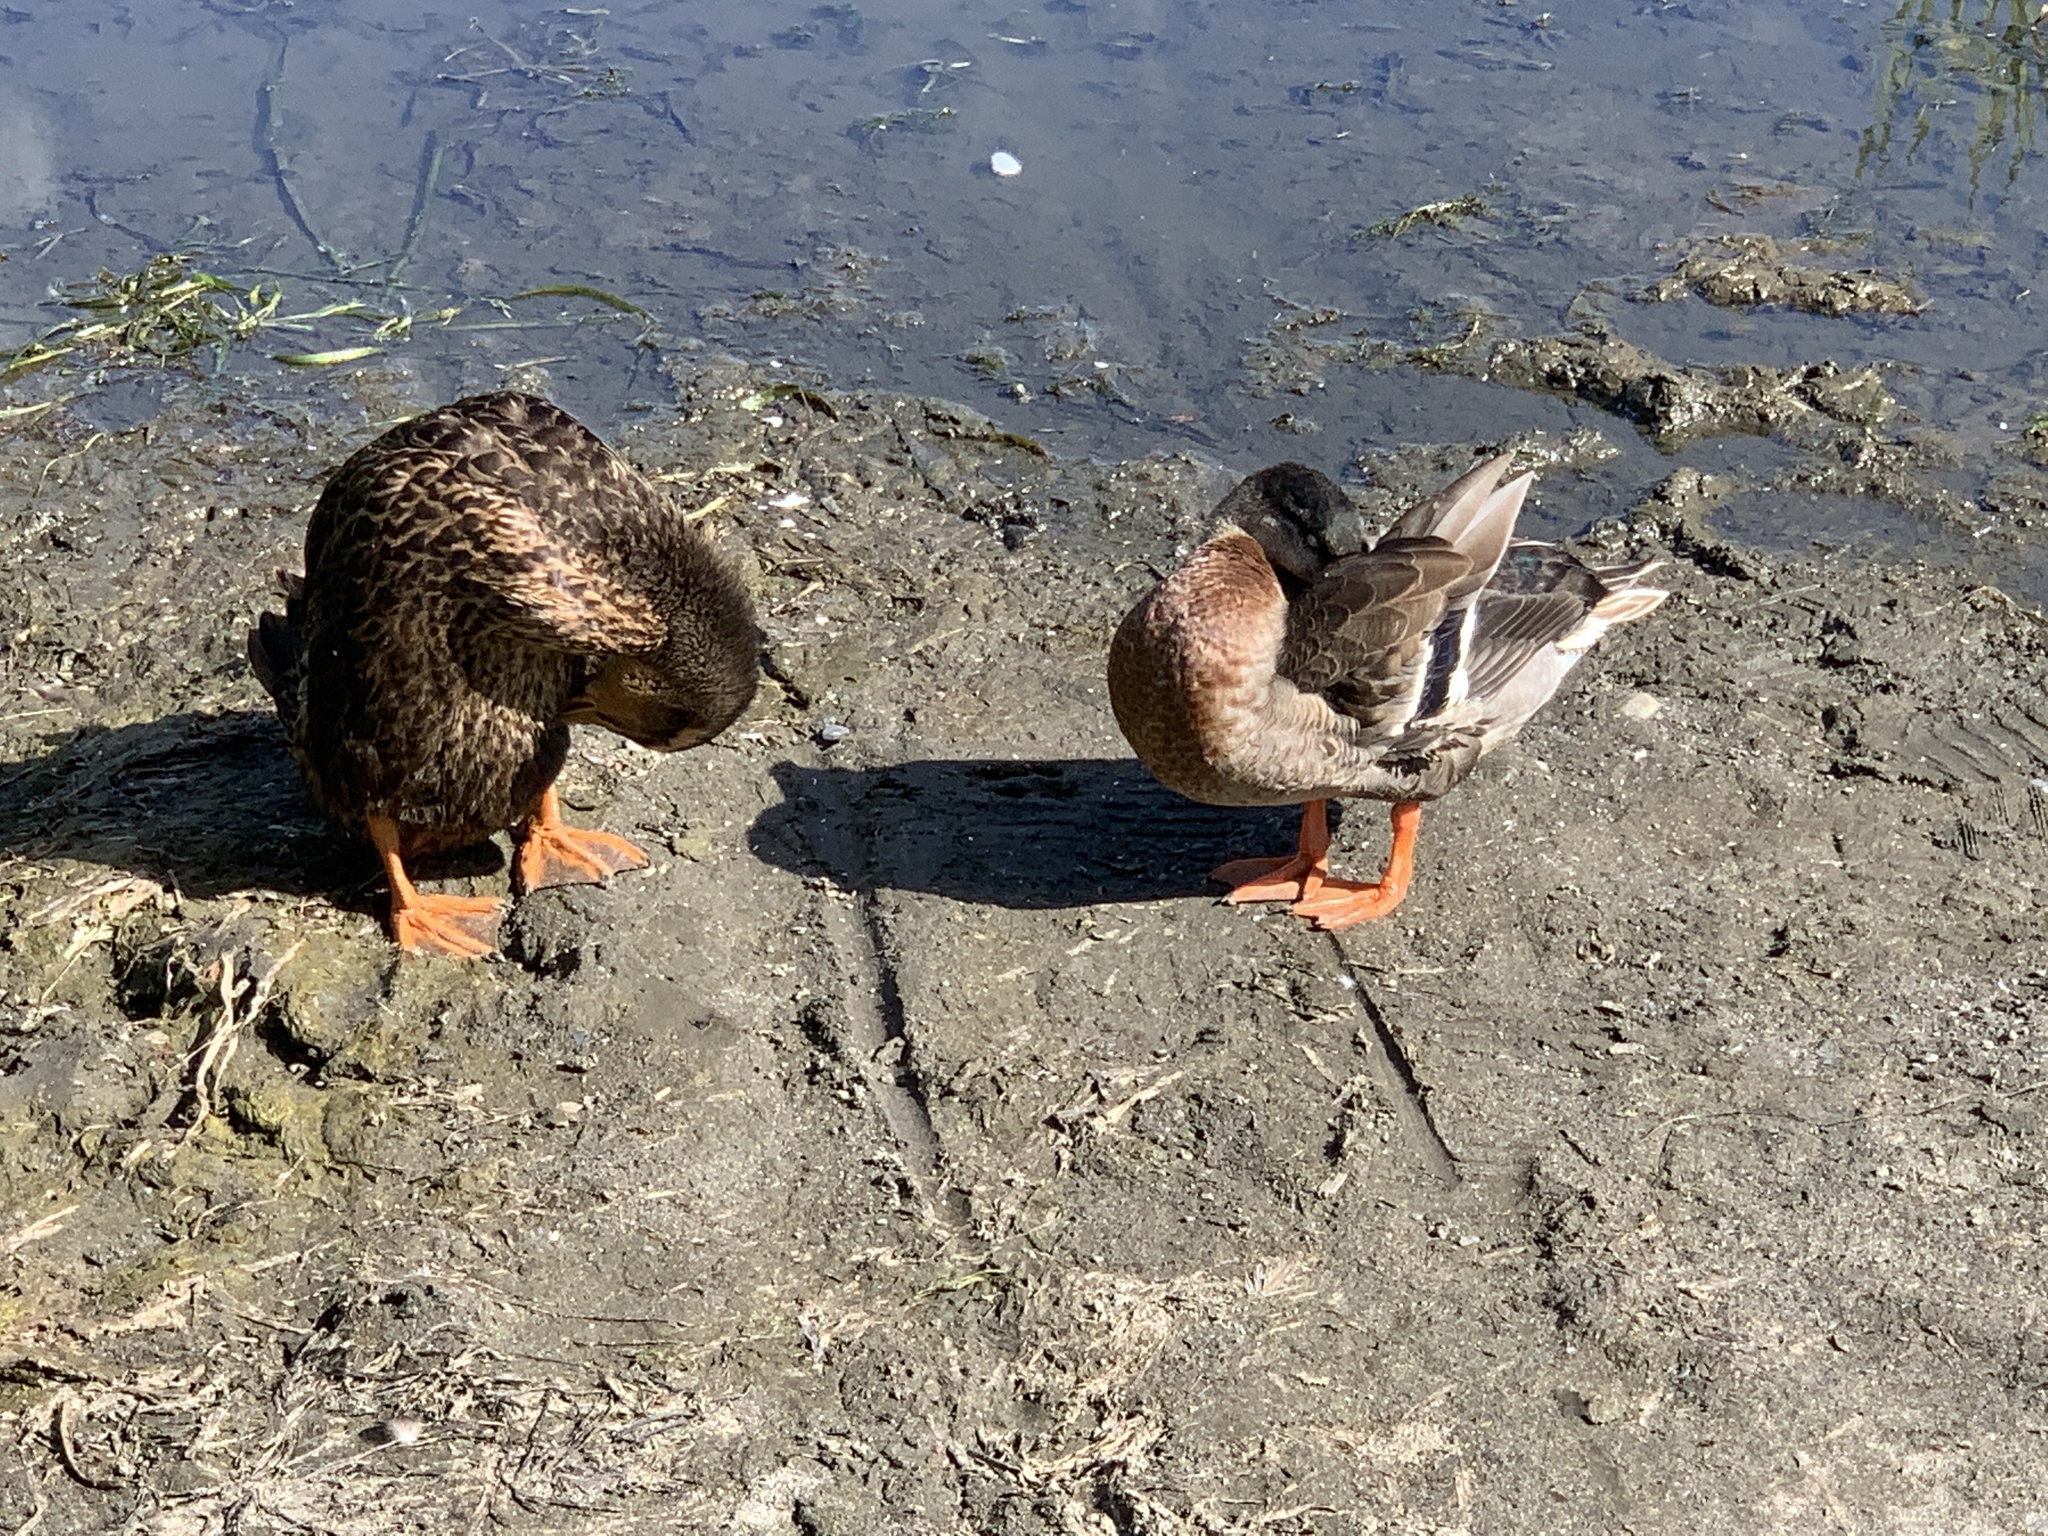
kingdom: Animalia
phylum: Chordata
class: Aves
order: Anseriformes
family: Anatidae
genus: Anas
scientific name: Anas platyrhynchos
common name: Mallard
